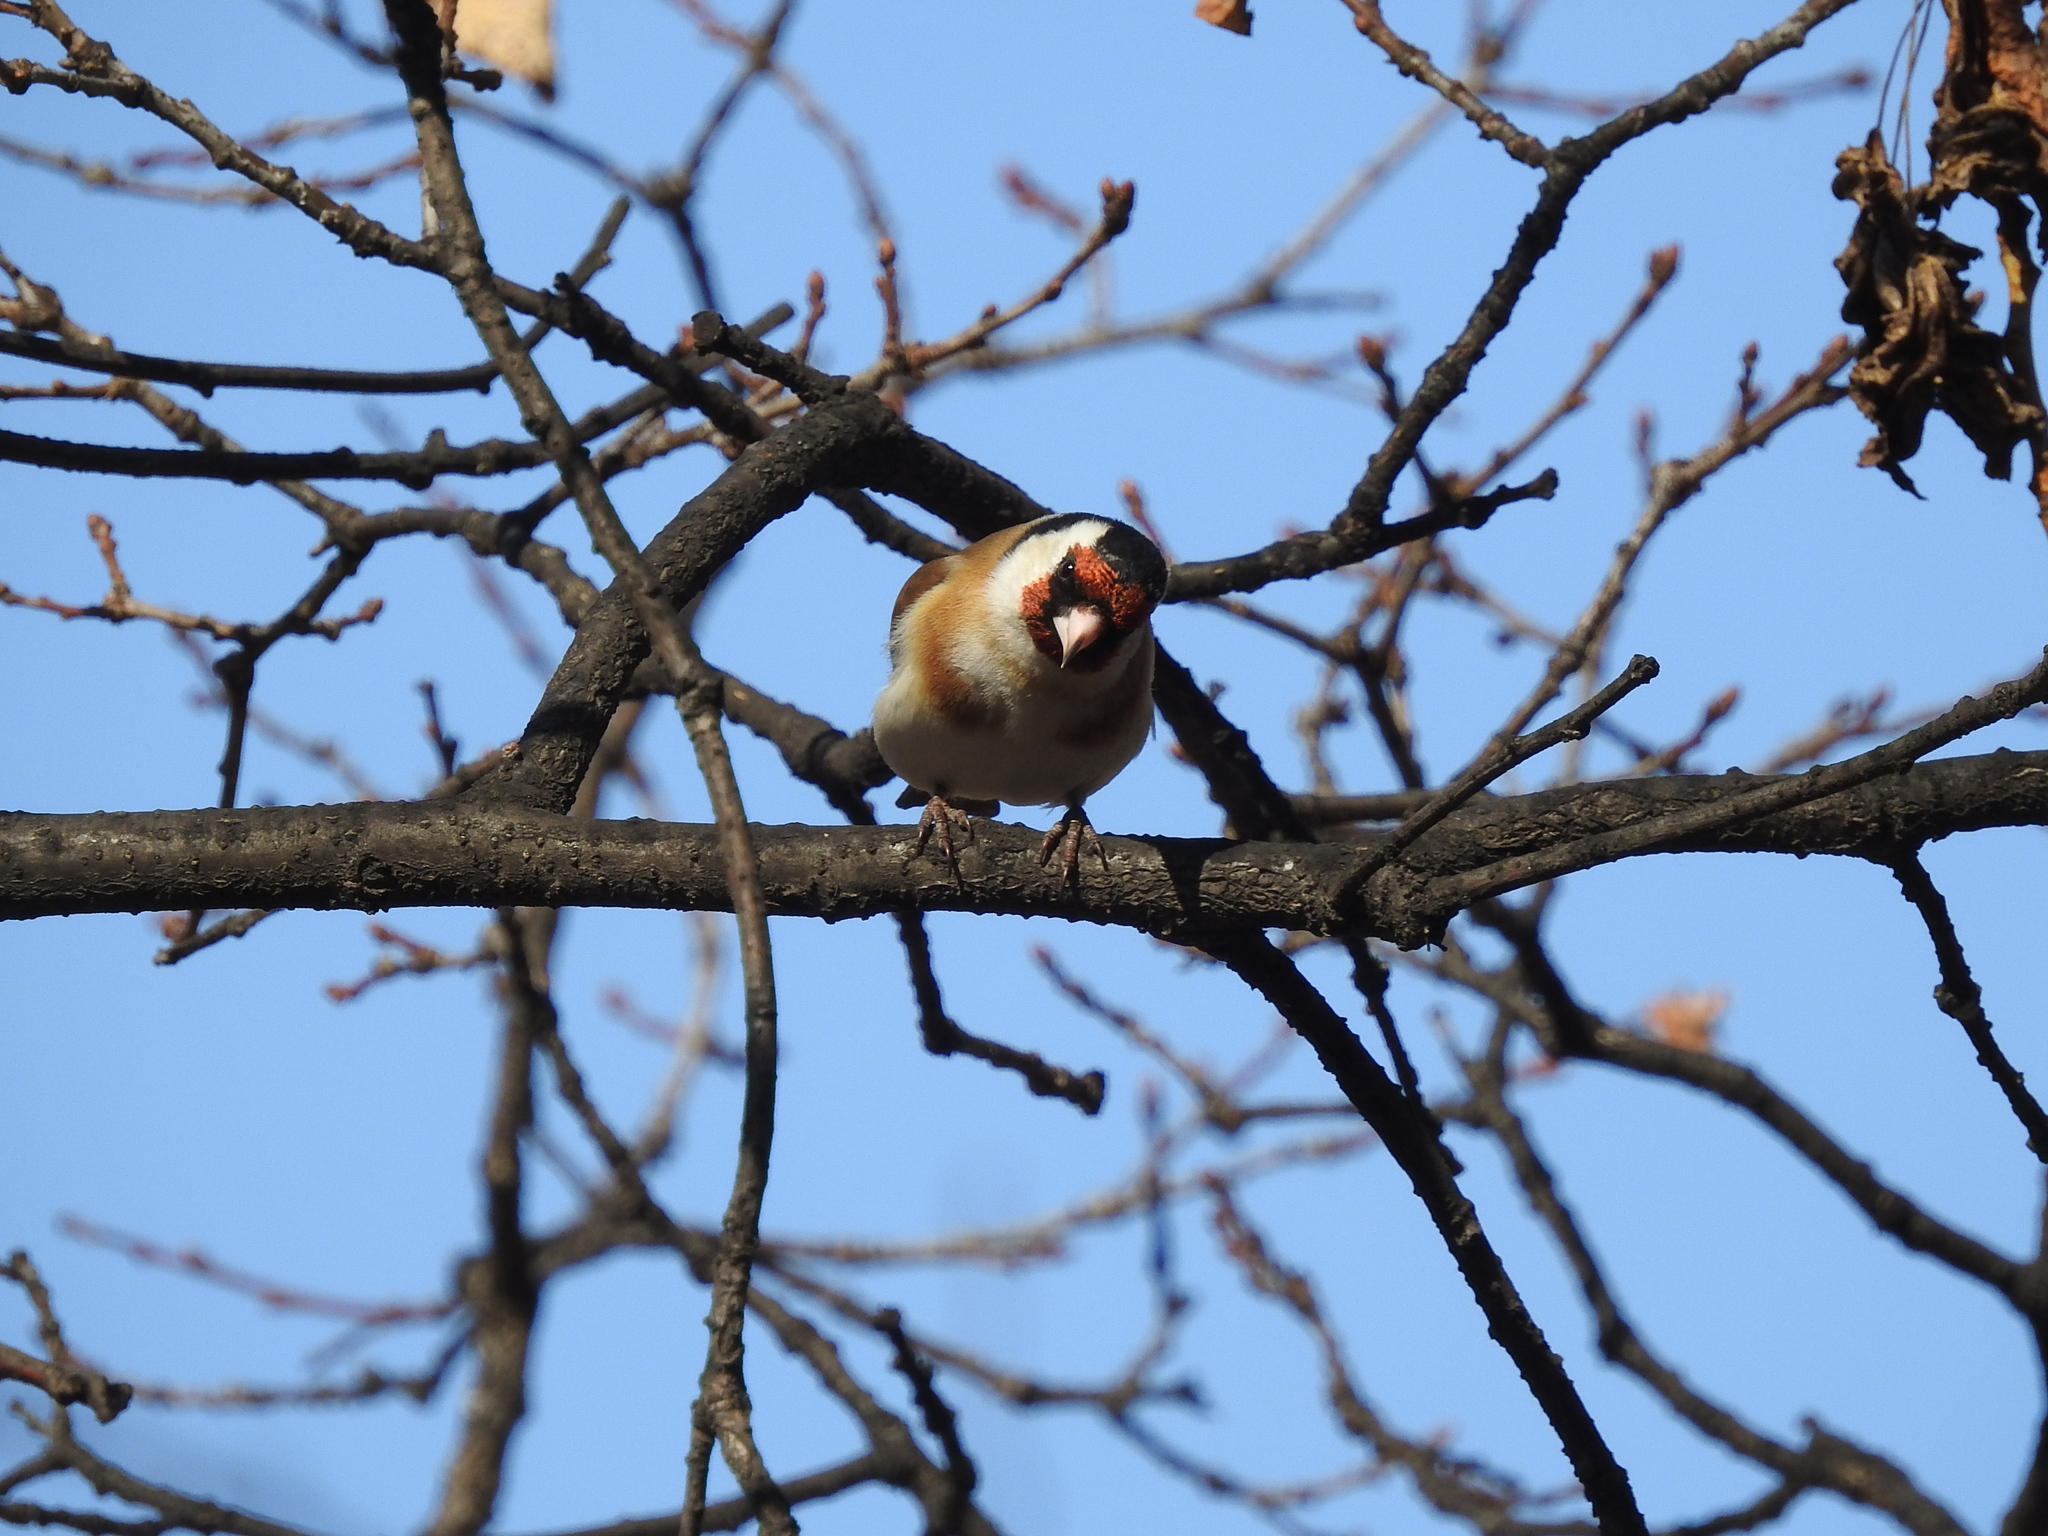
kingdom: Animalia
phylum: Chordata
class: Aves
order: Passeriformes
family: Fringillidae
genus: Carduelis
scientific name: Carduelis carduelis
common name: European goldfinch
